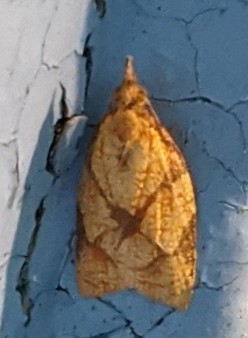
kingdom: Animalia
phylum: Arthropoda
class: Insecta
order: Lepidoptera
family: Tortricidae
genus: Cenopis
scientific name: Cenopis reticulatana
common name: Reticulated fruitworm moth
